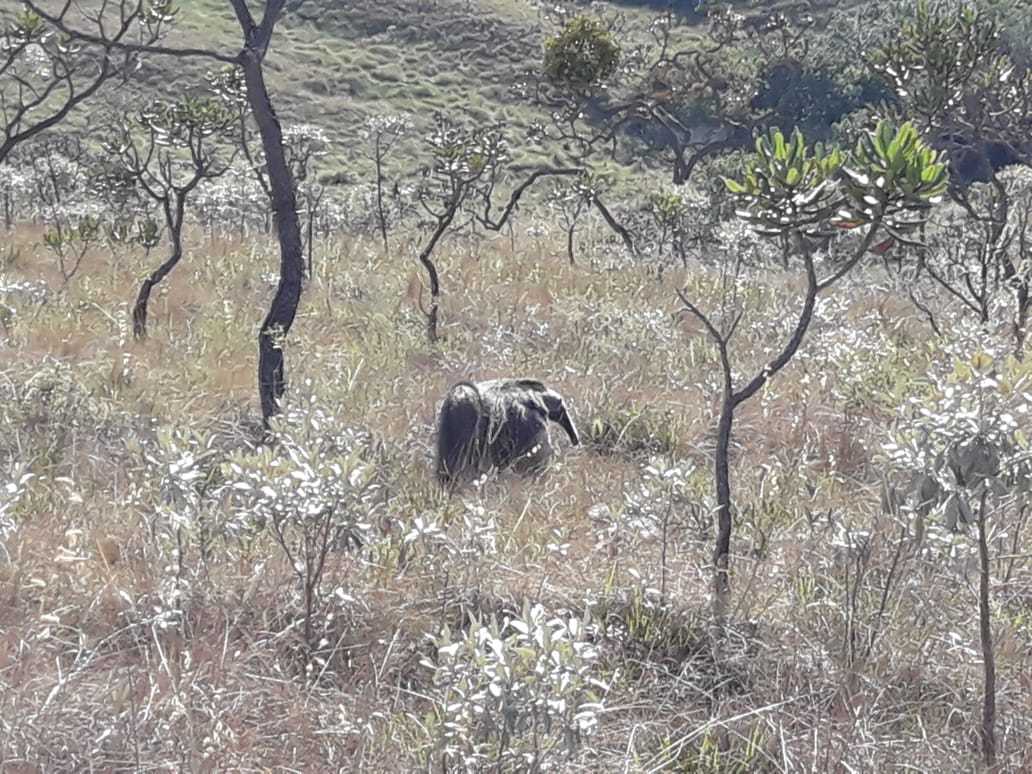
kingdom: Animalia
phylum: Chordata
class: Mammalia
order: Pilosa
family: Myrmecophagidae
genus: Myrmecophaga
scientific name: Myrmecophaga tridactyla
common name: Giant anteater
